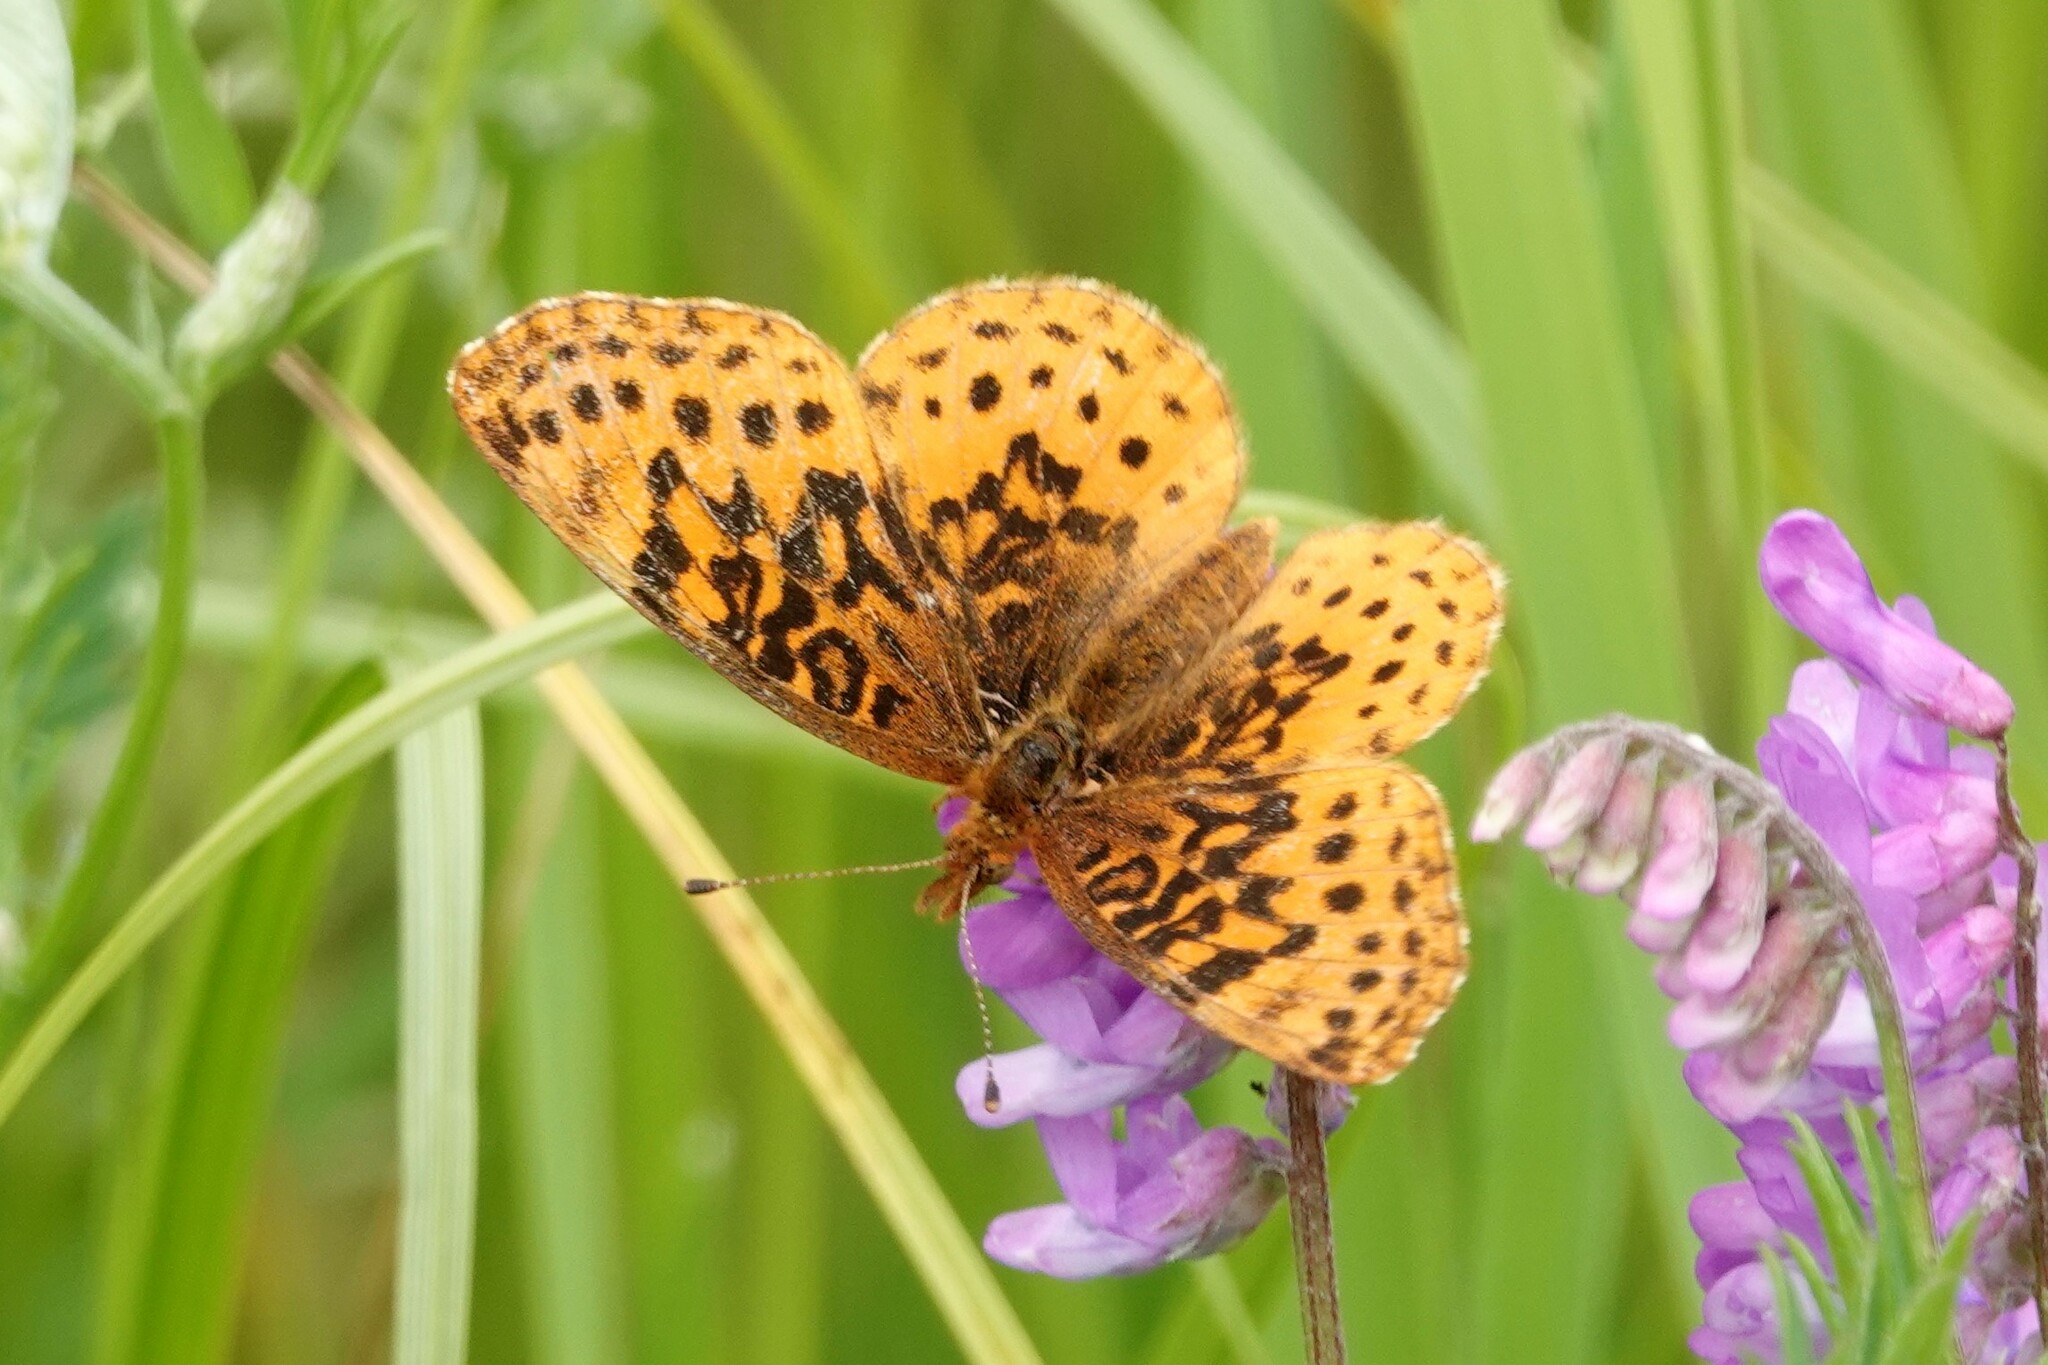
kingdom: Animalia
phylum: Arthropoda
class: Insecta
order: Lepidoptera
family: Nymphalidae
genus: Clossiana
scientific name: Clossiana toddi
